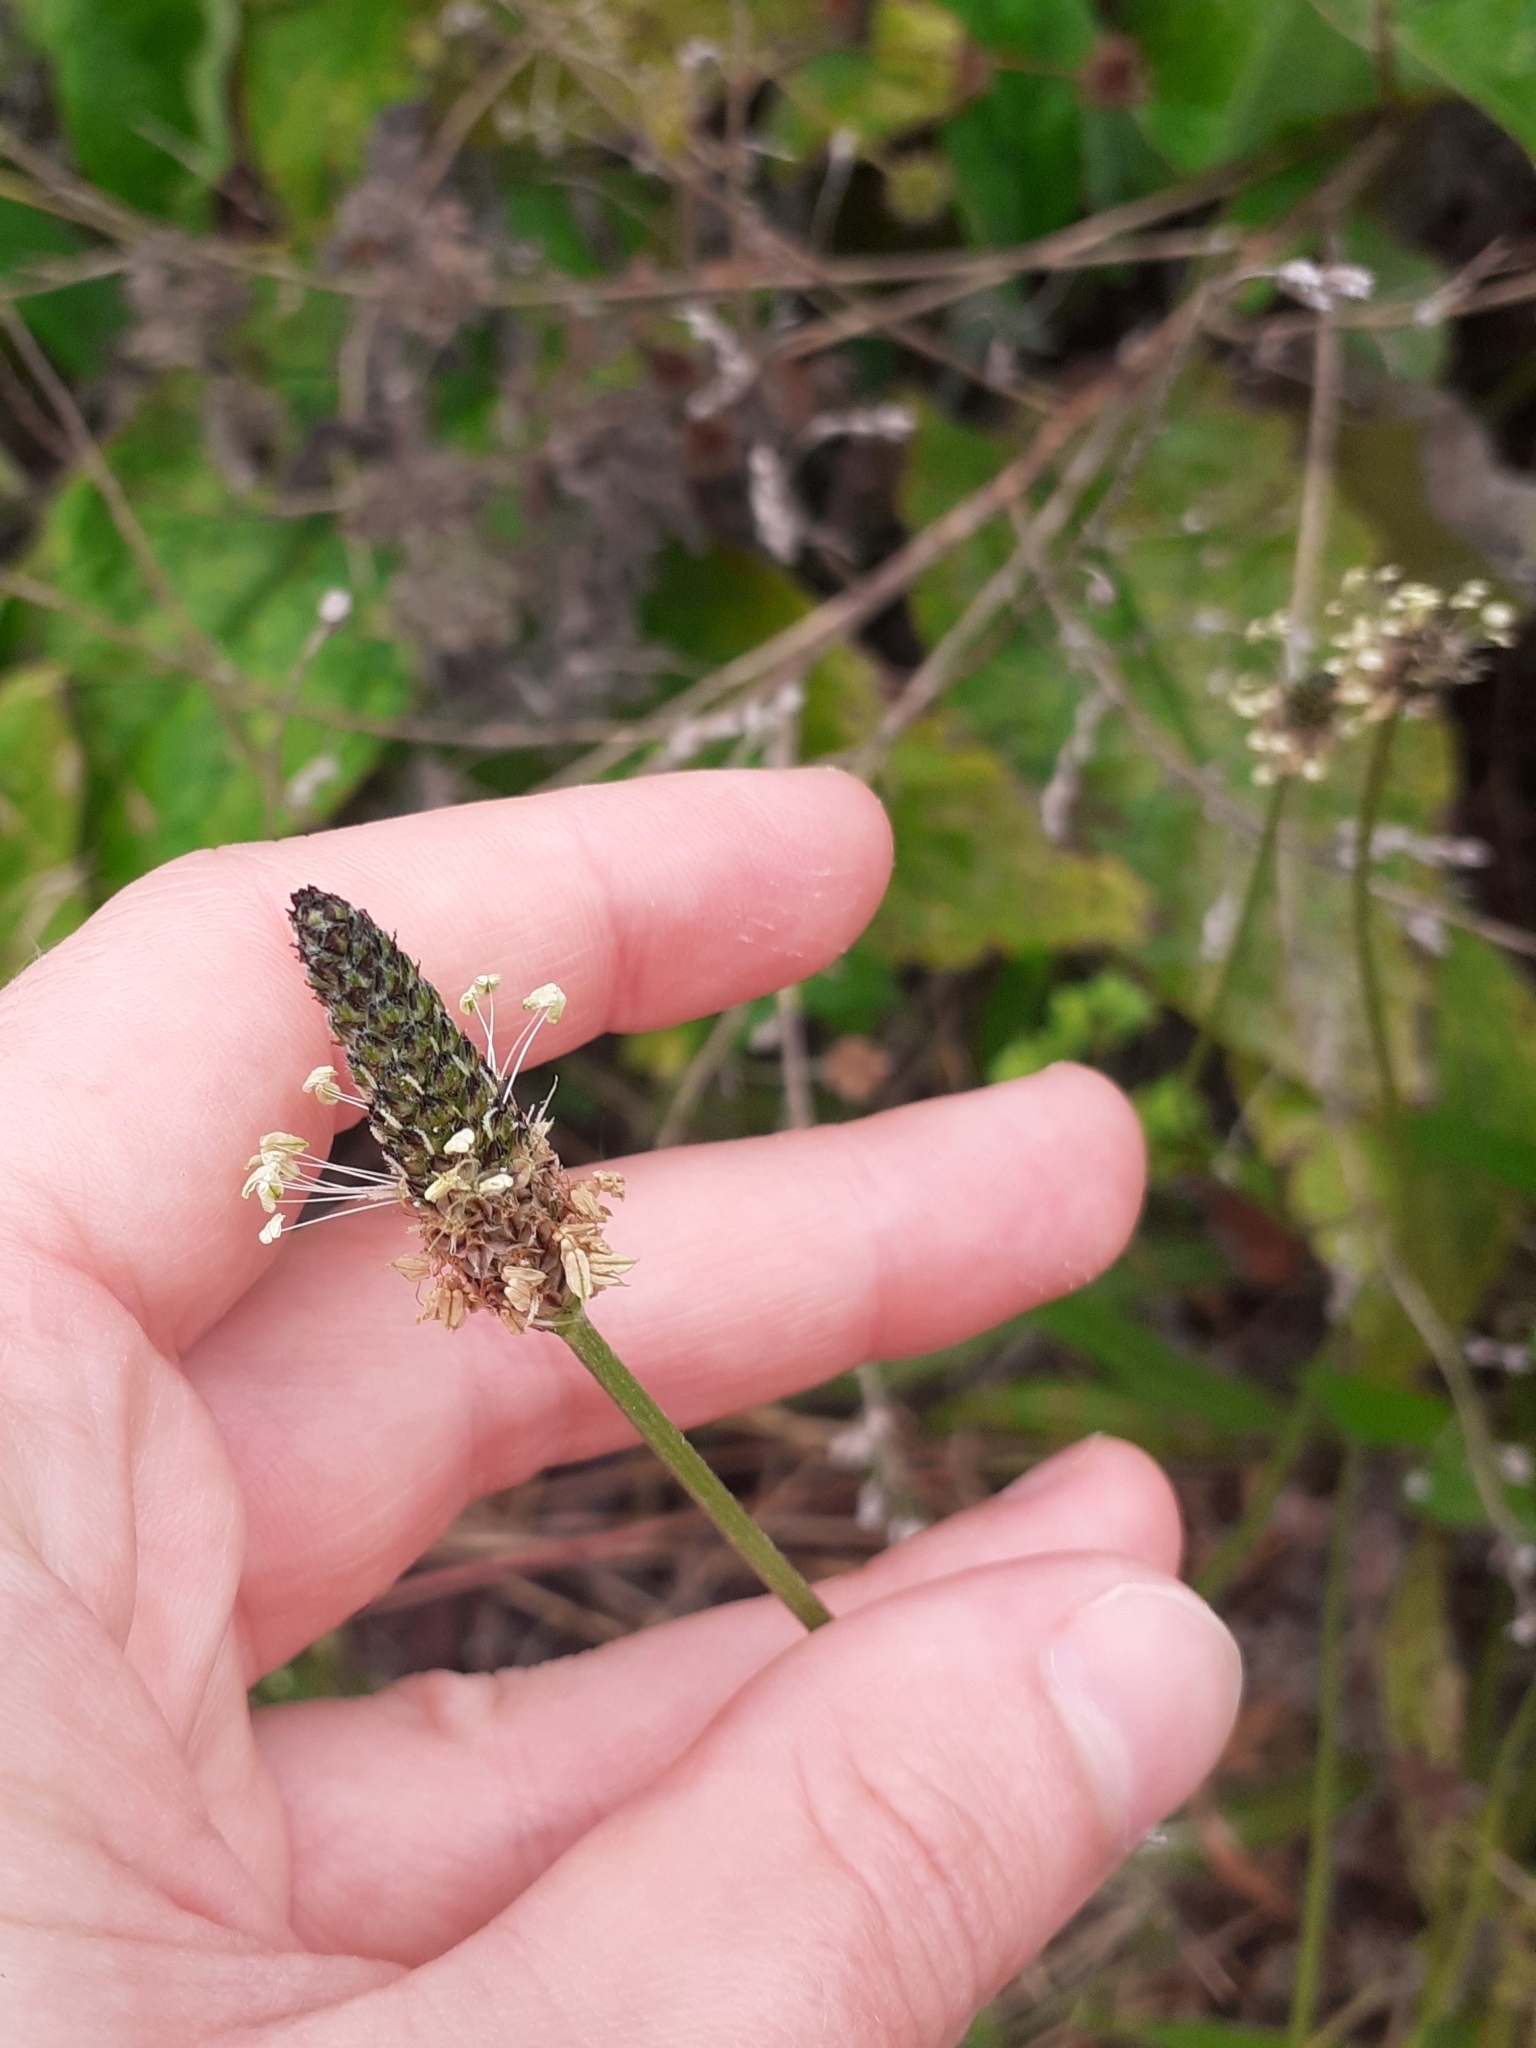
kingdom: Plantae
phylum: Tracheophyta
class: Magnoliopsida
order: Lamiales
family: Plantaginaceae
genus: Plantago
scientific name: Plantago lanceolata
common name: Ribwort plantain
